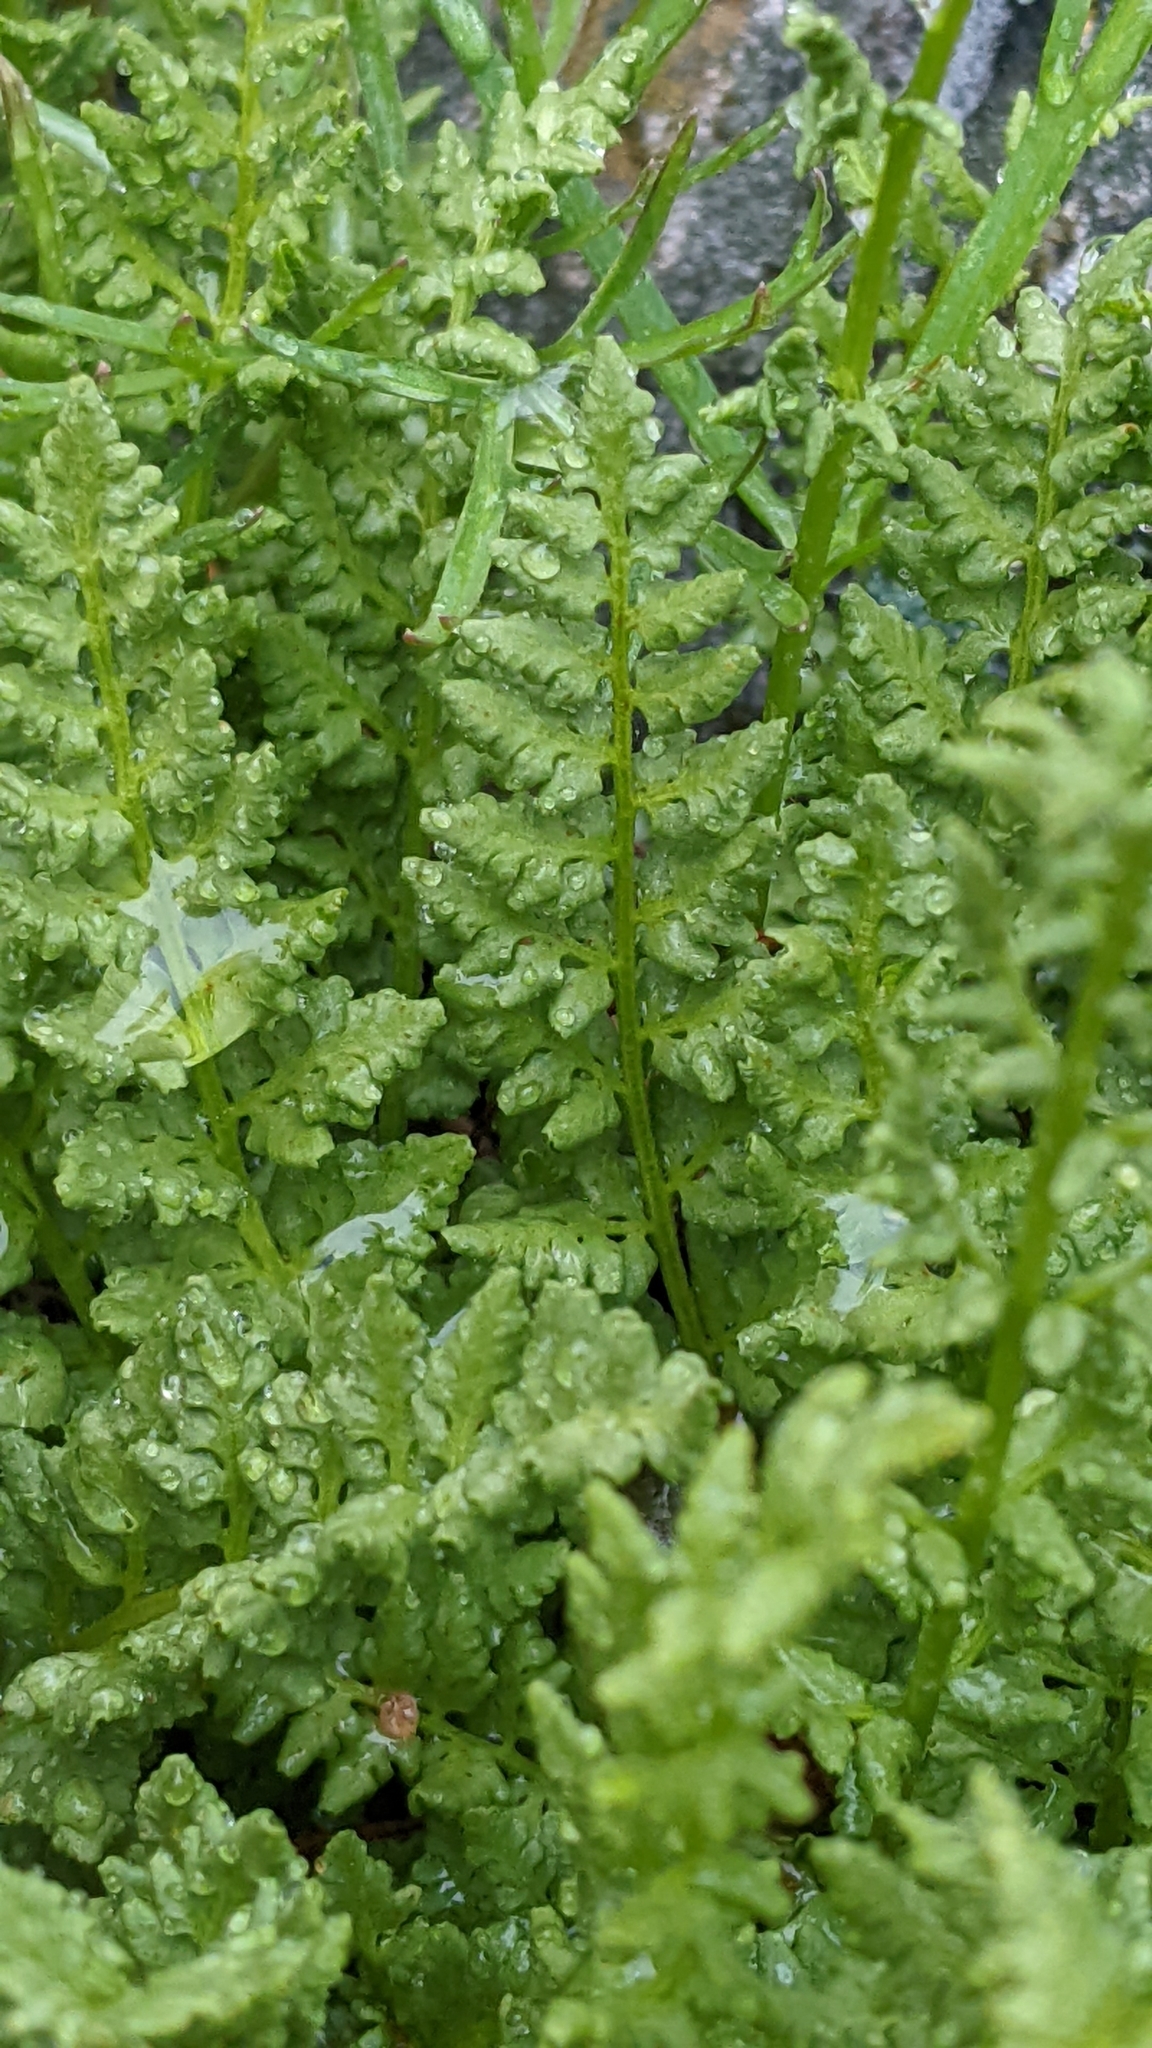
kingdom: Plantae
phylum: Tracheophyta
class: Polypodiopsida
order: Polypodiales
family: Woodsiaceae
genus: Physematium
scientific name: Physematium oreganum
